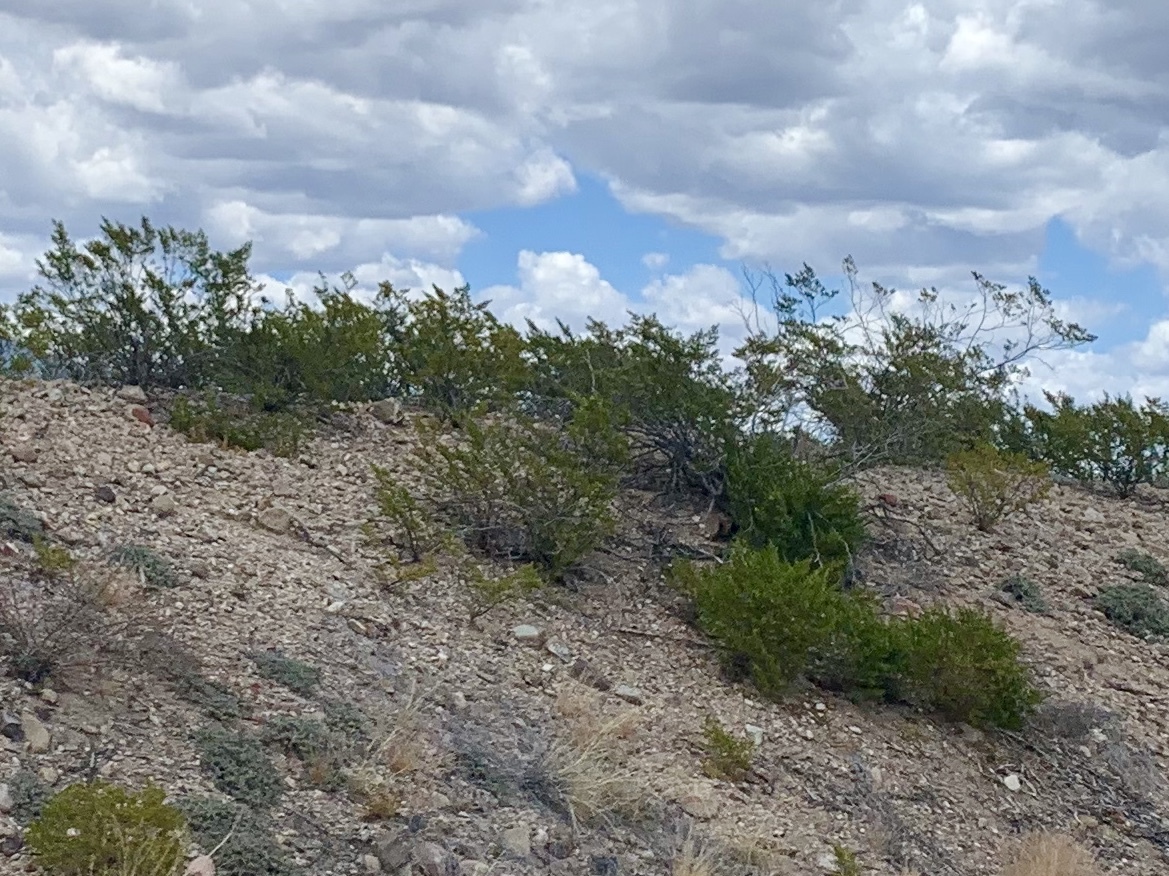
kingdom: Plantae
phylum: Tracheophyta
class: Magnoliopsida
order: Zygophyllales
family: Zygophyllaceae
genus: Larrea
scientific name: Larrea tridentata
